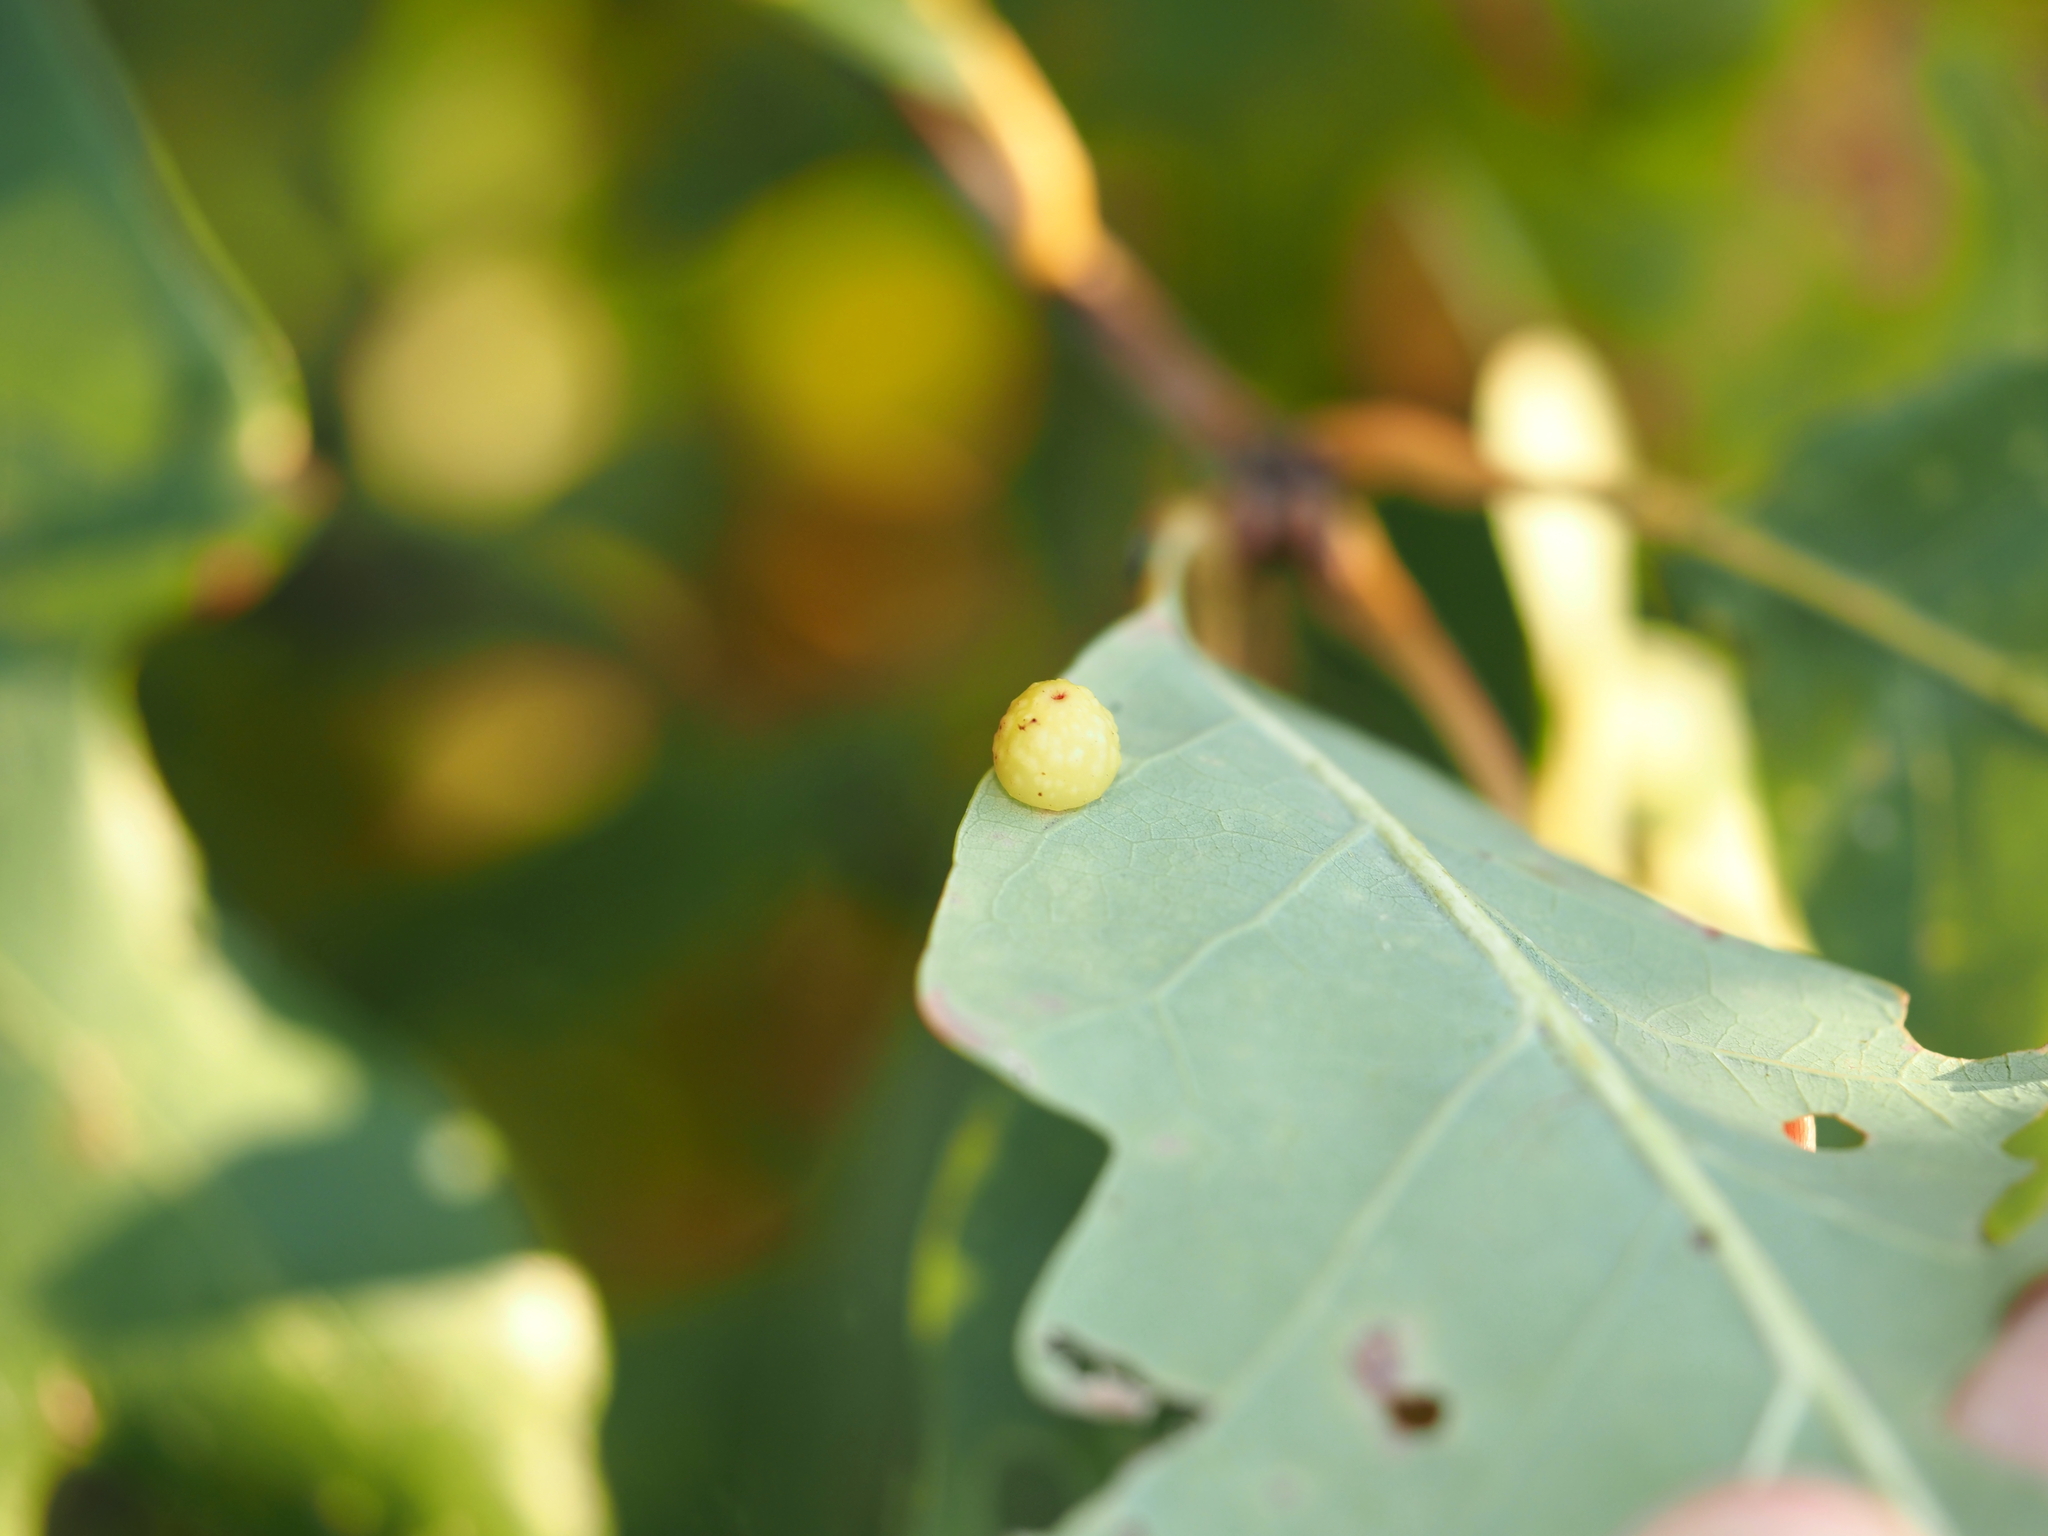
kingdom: Animalia
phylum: Arthropoda
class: Insecta
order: Hymenoptera
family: Cynipidae
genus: Andricus
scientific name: Andricus
